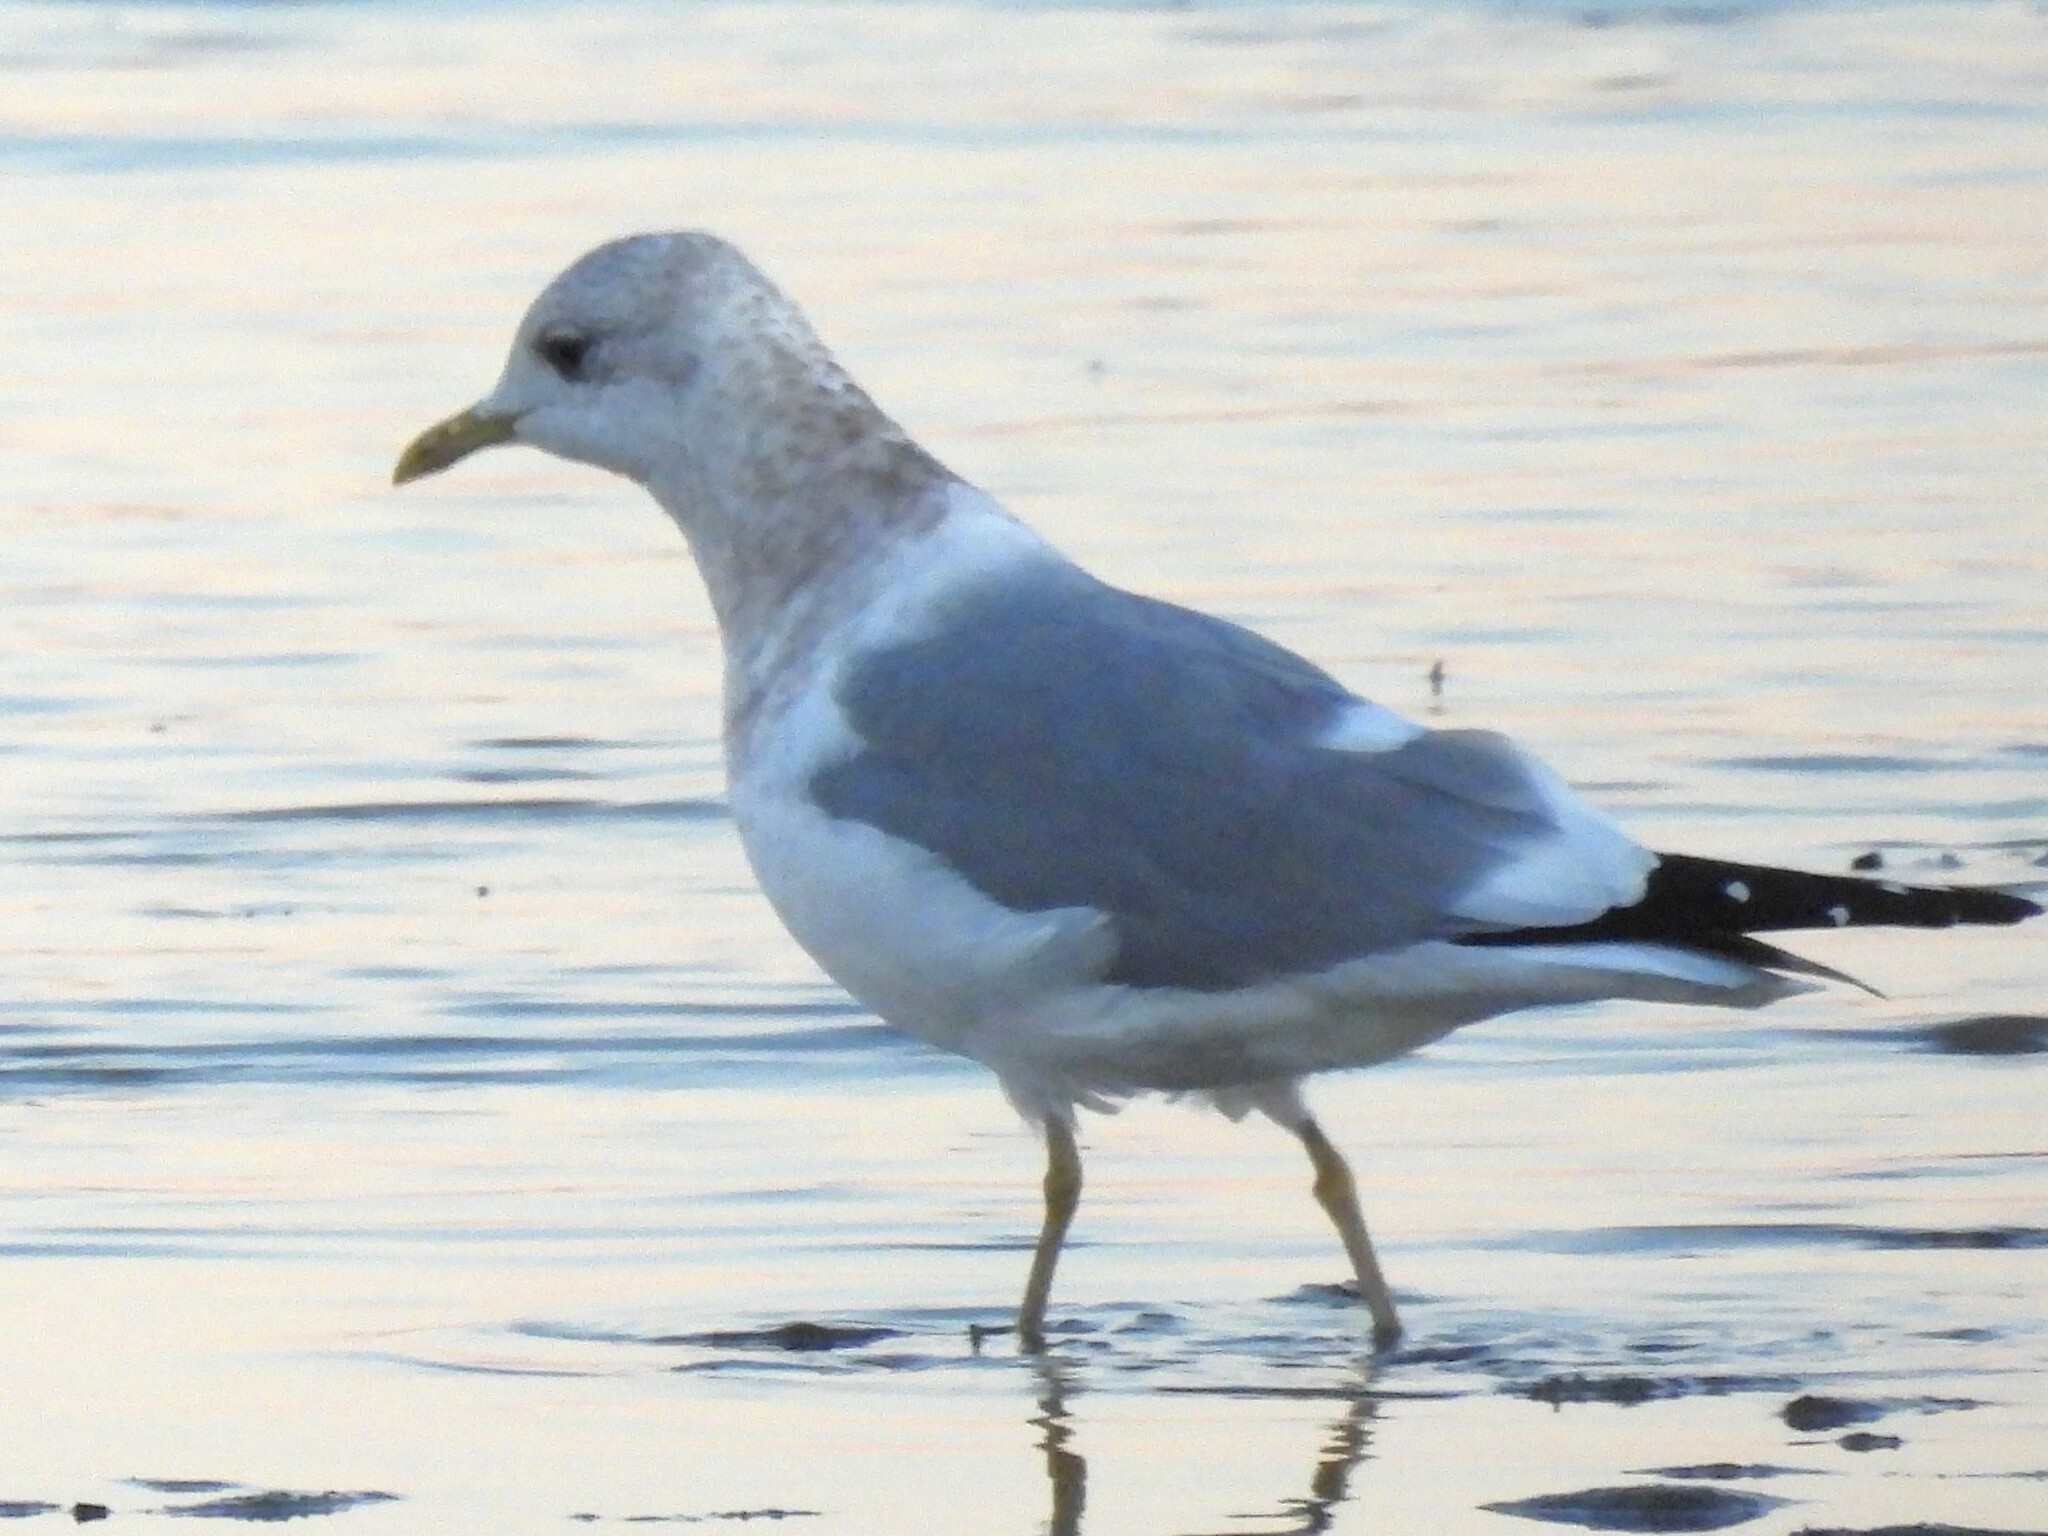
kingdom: Animalia
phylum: Chordata
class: Aves
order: Charadriiformes
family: Laridae
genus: Larus
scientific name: Larus brachyrhynchus
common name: Short-billed gull
